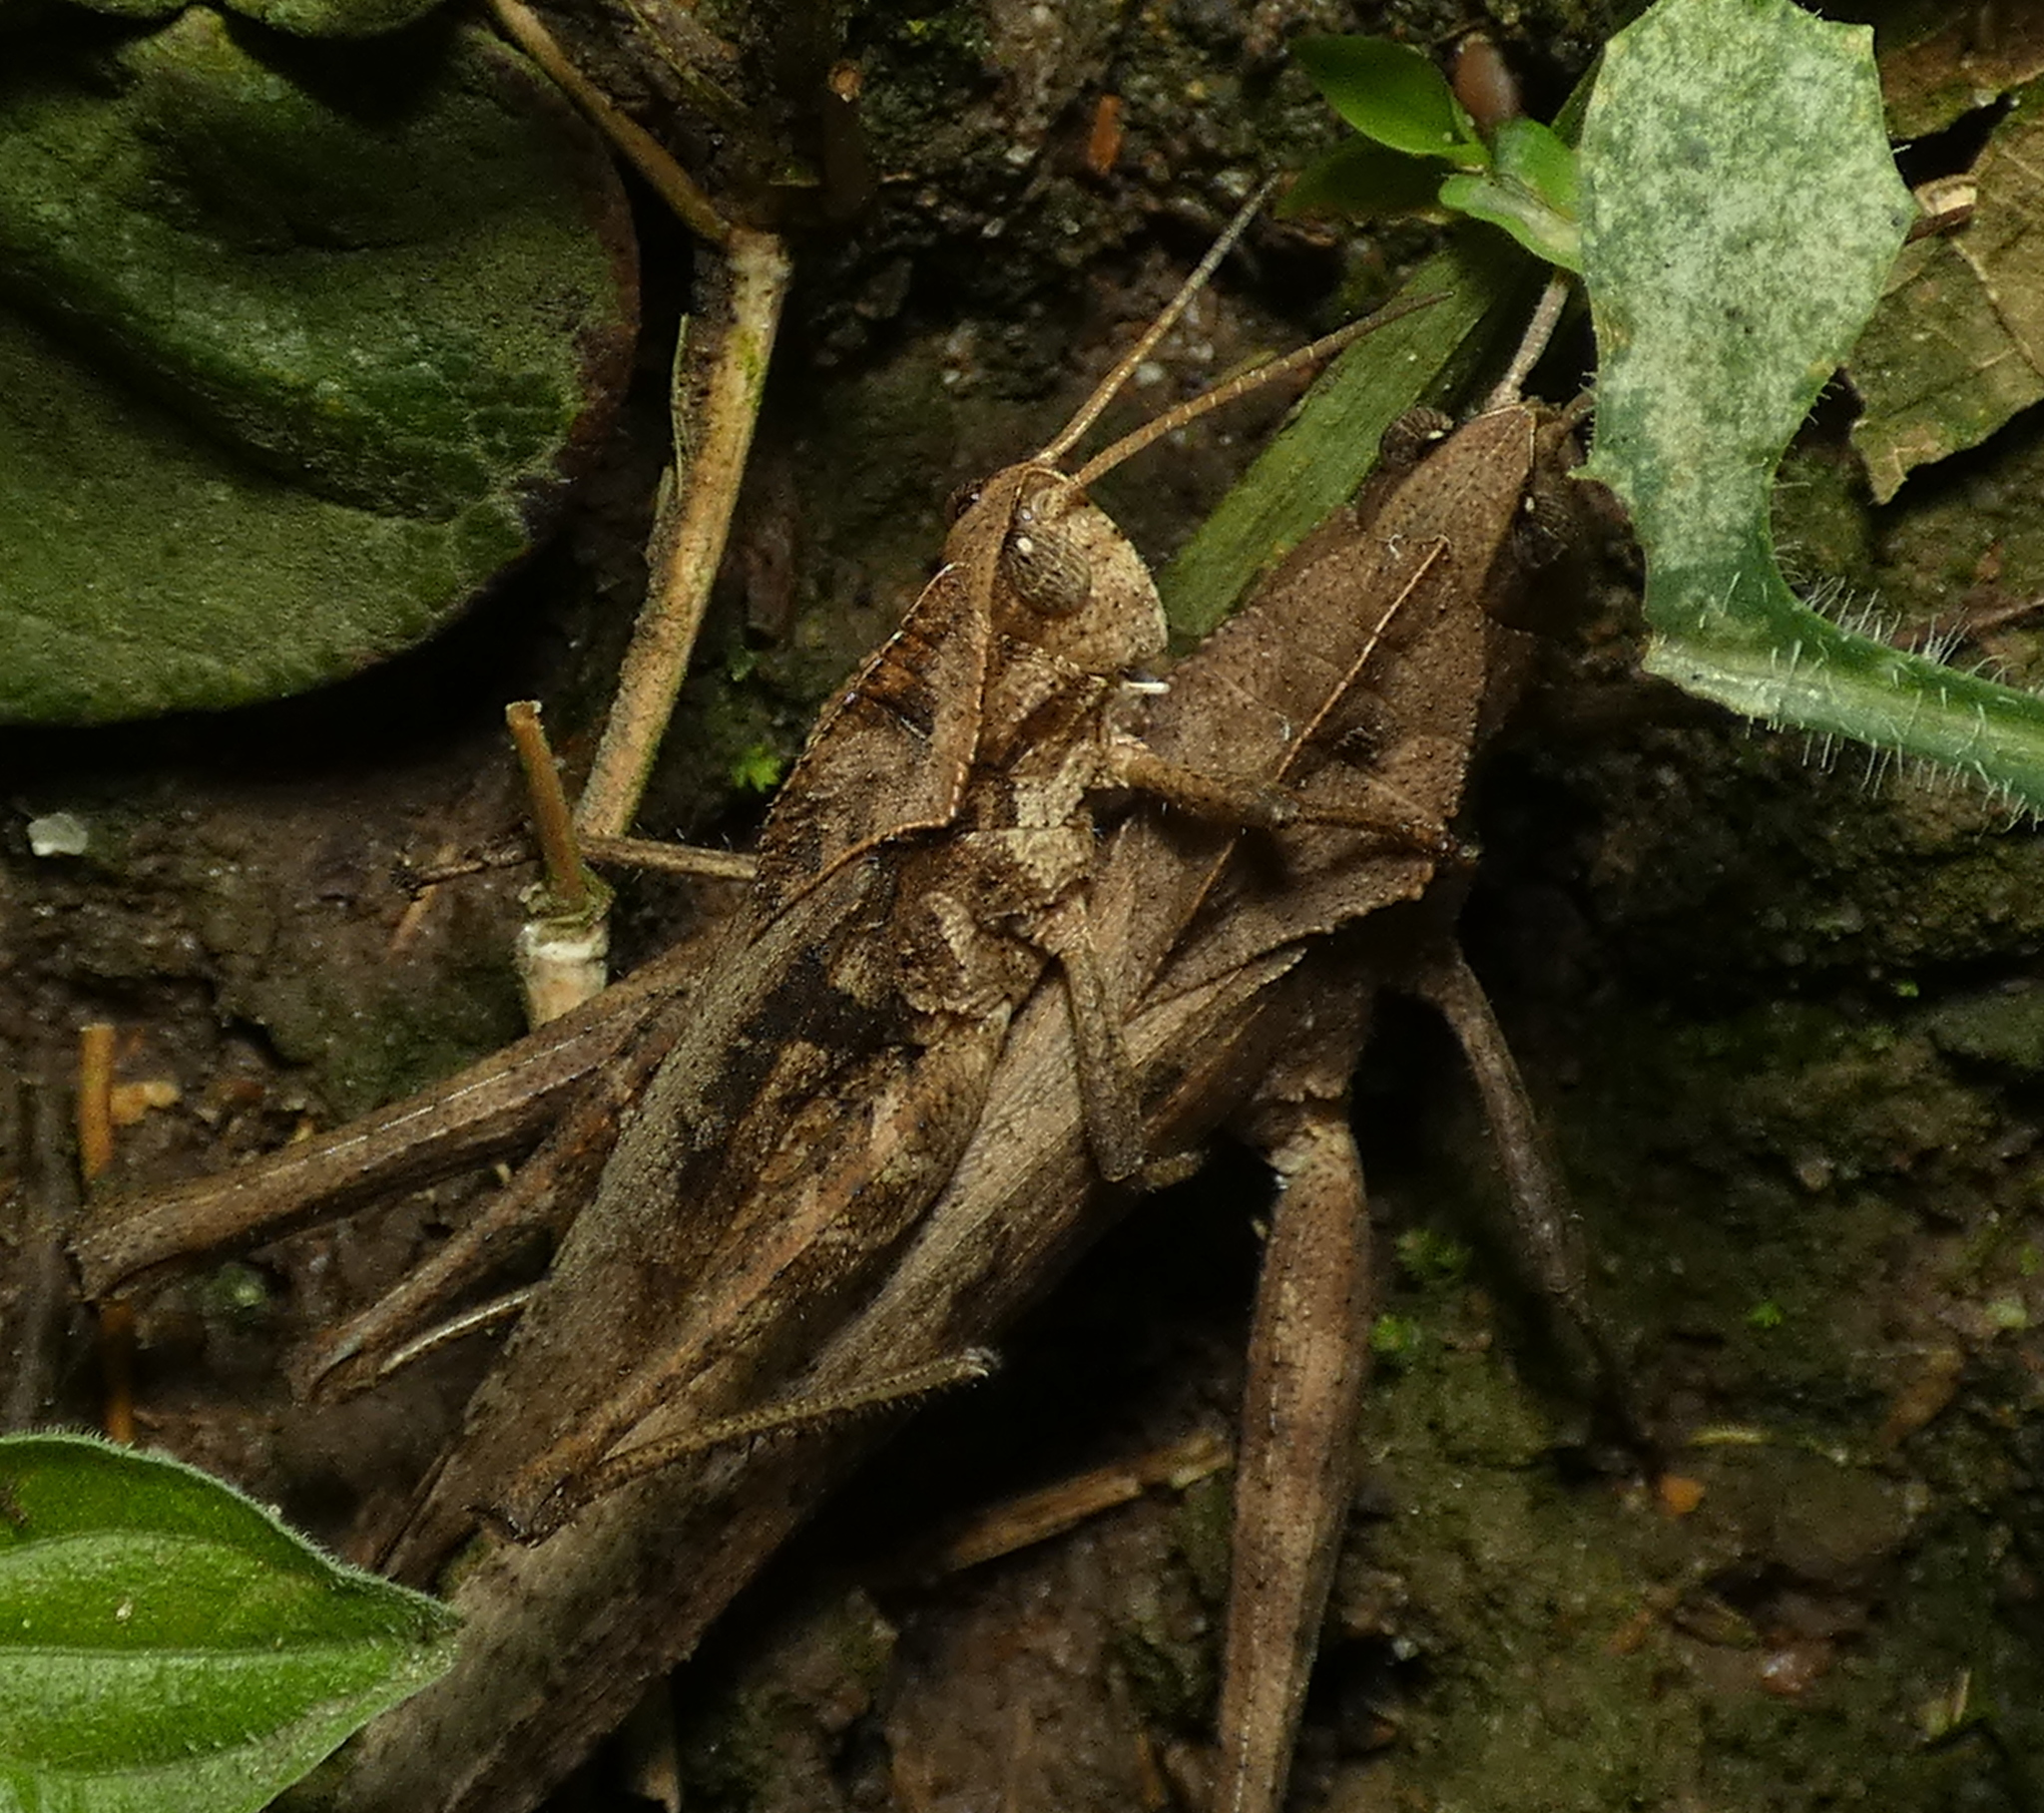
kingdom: Animalia
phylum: Arthropoda
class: Insecta
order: Orthoptera
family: Romaleidae
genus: Xyleus
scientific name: Xyleus discoideus
